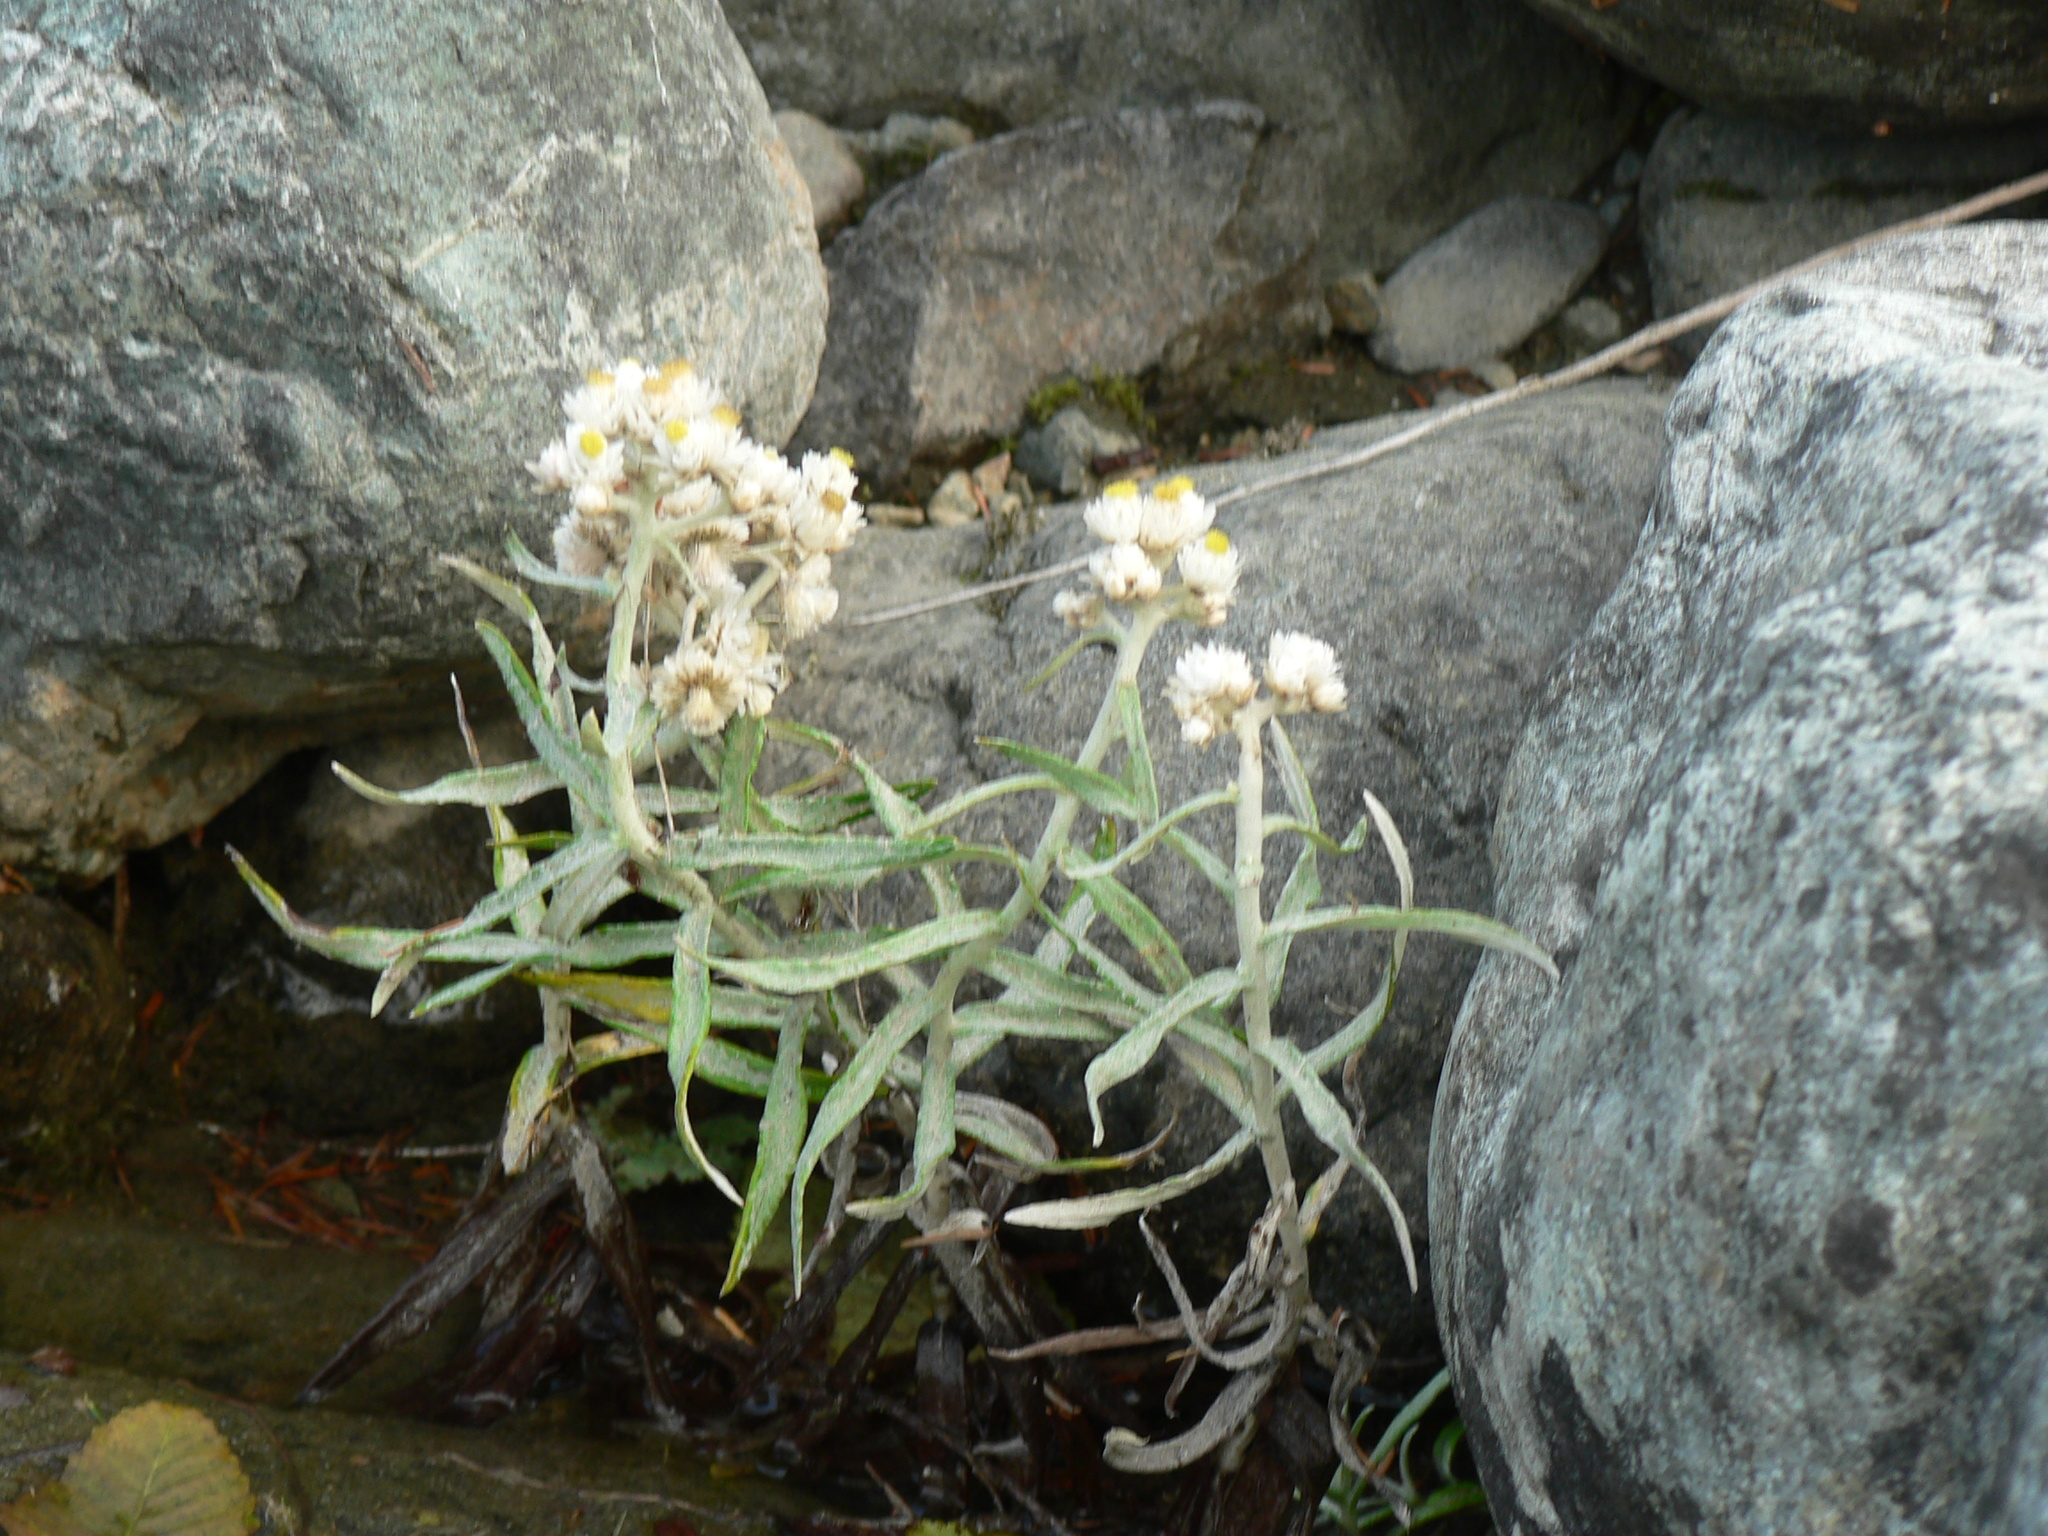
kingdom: Plantae
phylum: Tracheophyta
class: Magnoliopsida
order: Asterales
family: Asteraceae
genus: Anaphalis
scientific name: Anaphalis margaritacea
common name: Pearly everlasting
